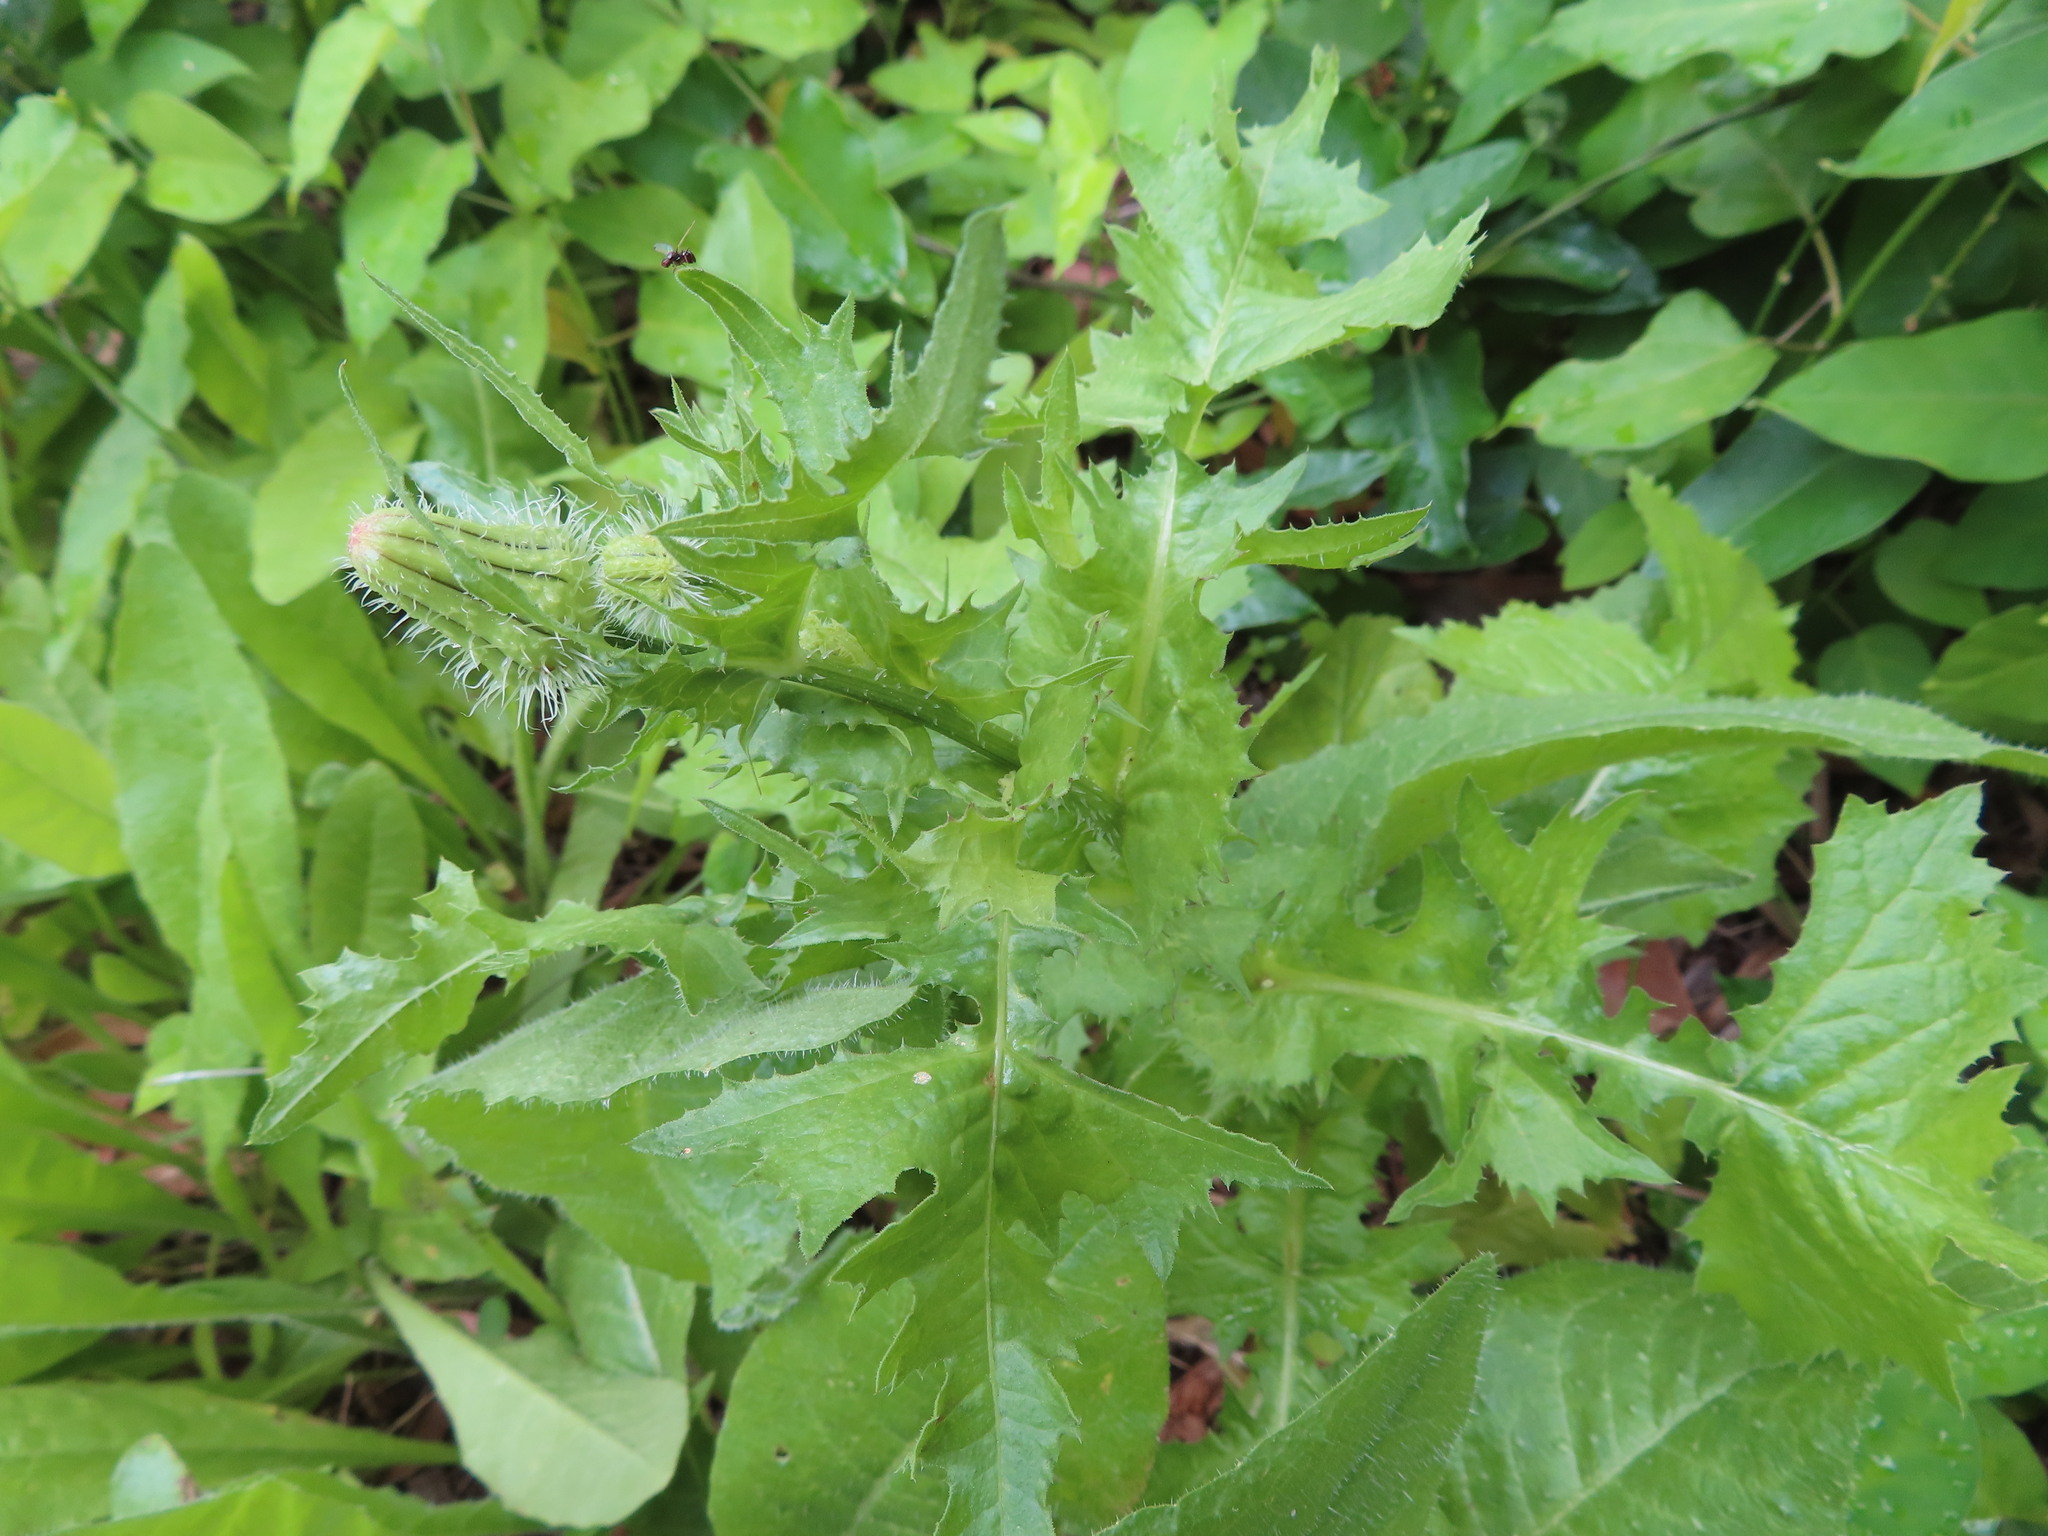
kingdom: Plantae
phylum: Tracheophyta
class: Magnoliopsida
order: Asterales
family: Asteraceae
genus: Urospermum
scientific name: Urospermum picroides
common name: False hawkbit
